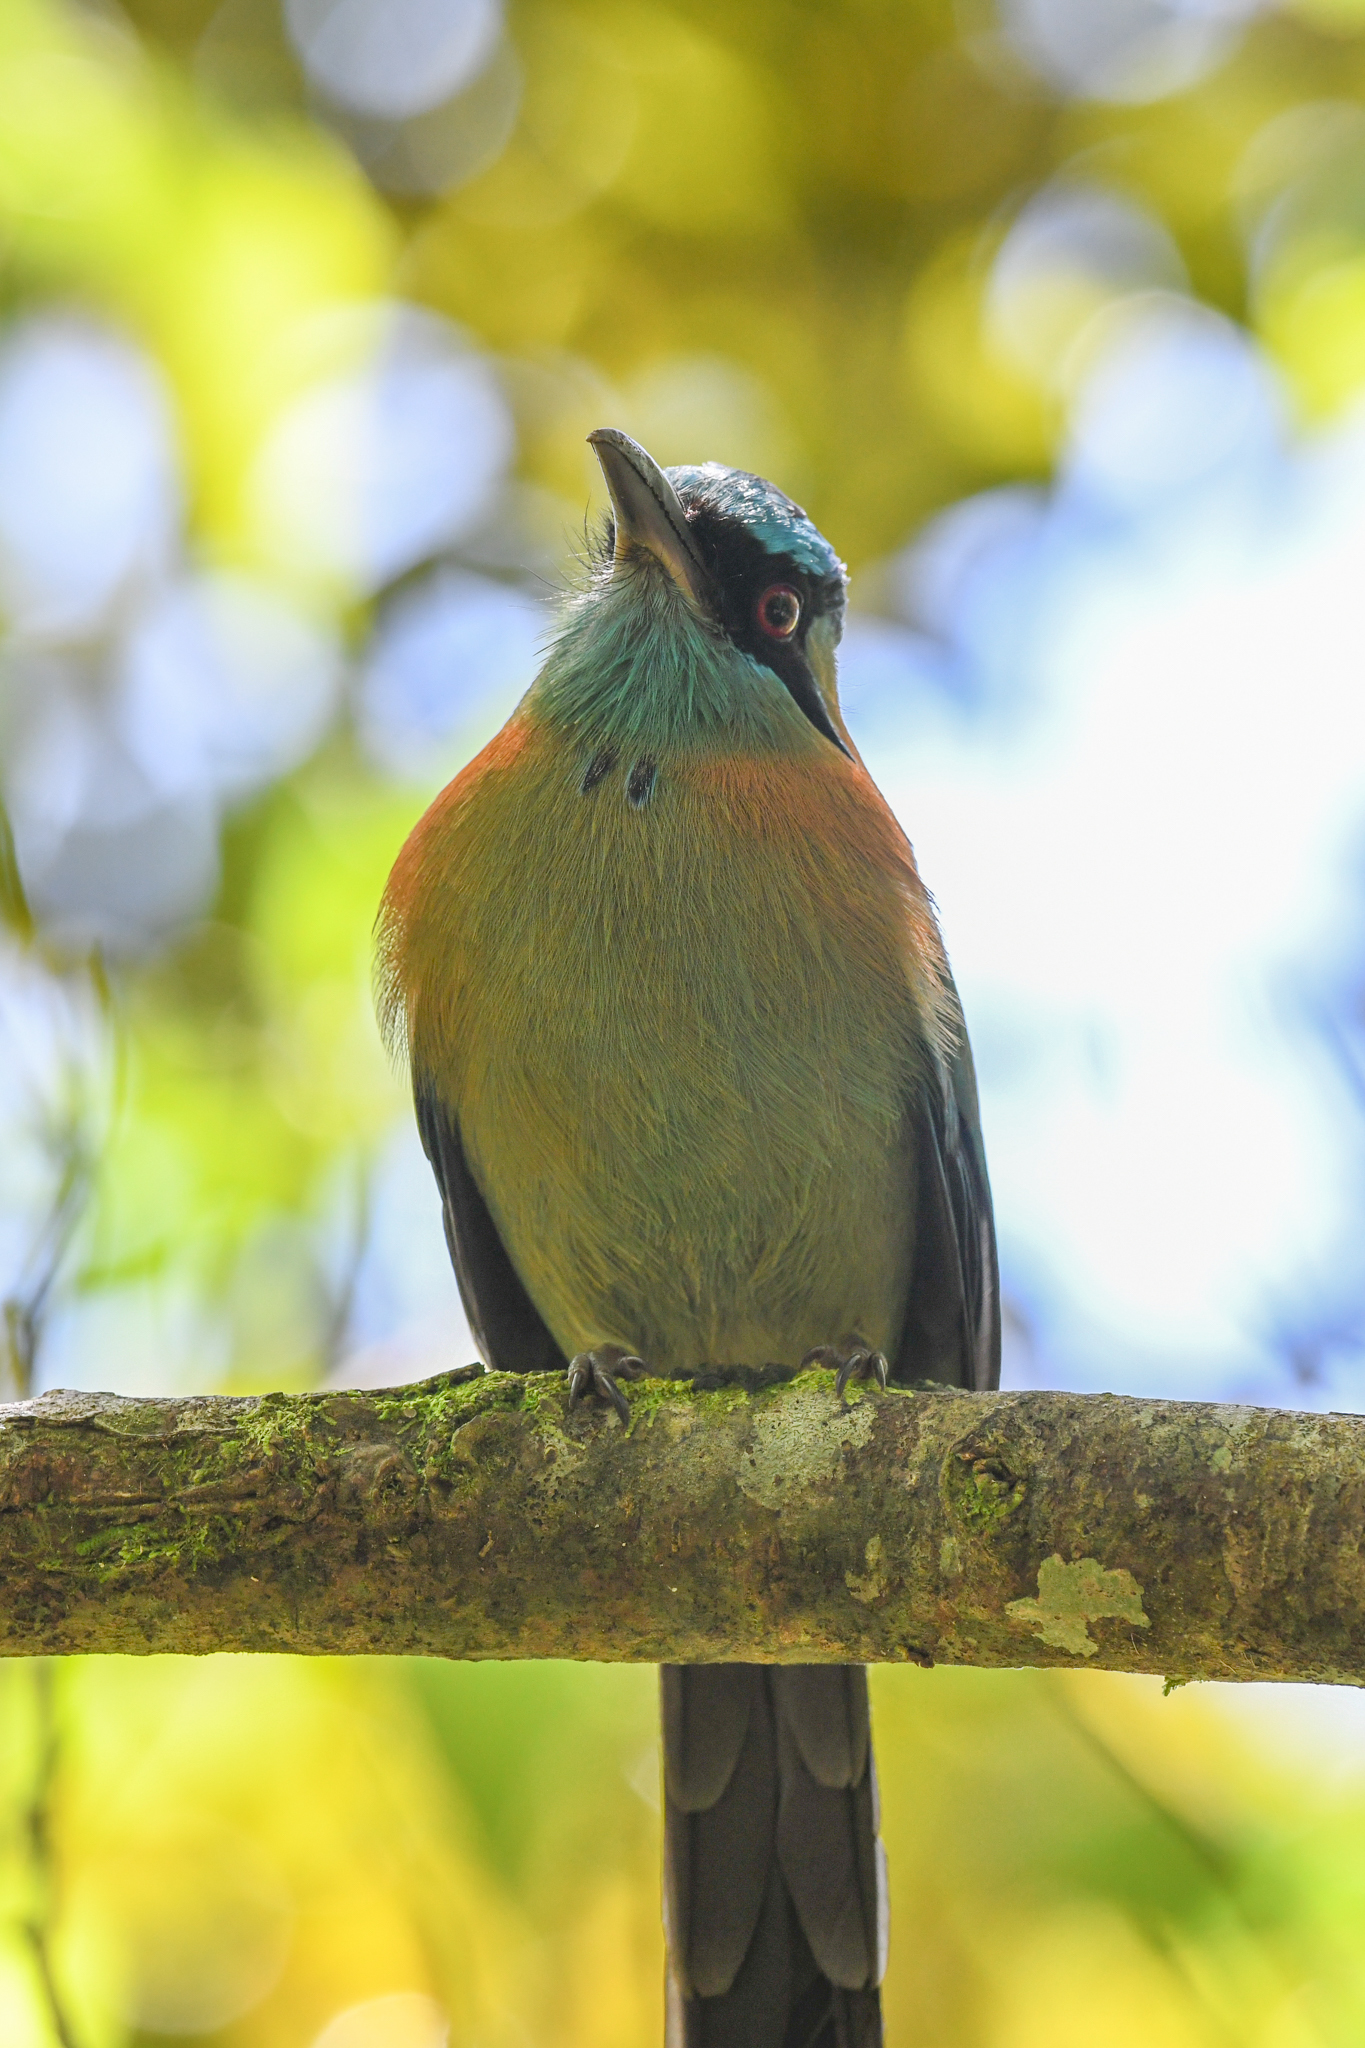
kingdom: Animalia
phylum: Chordata
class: Aves
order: Coraciiformes
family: Momotidae
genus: Momotus
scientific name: Momotus lessonii
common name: Lesson's motmot
